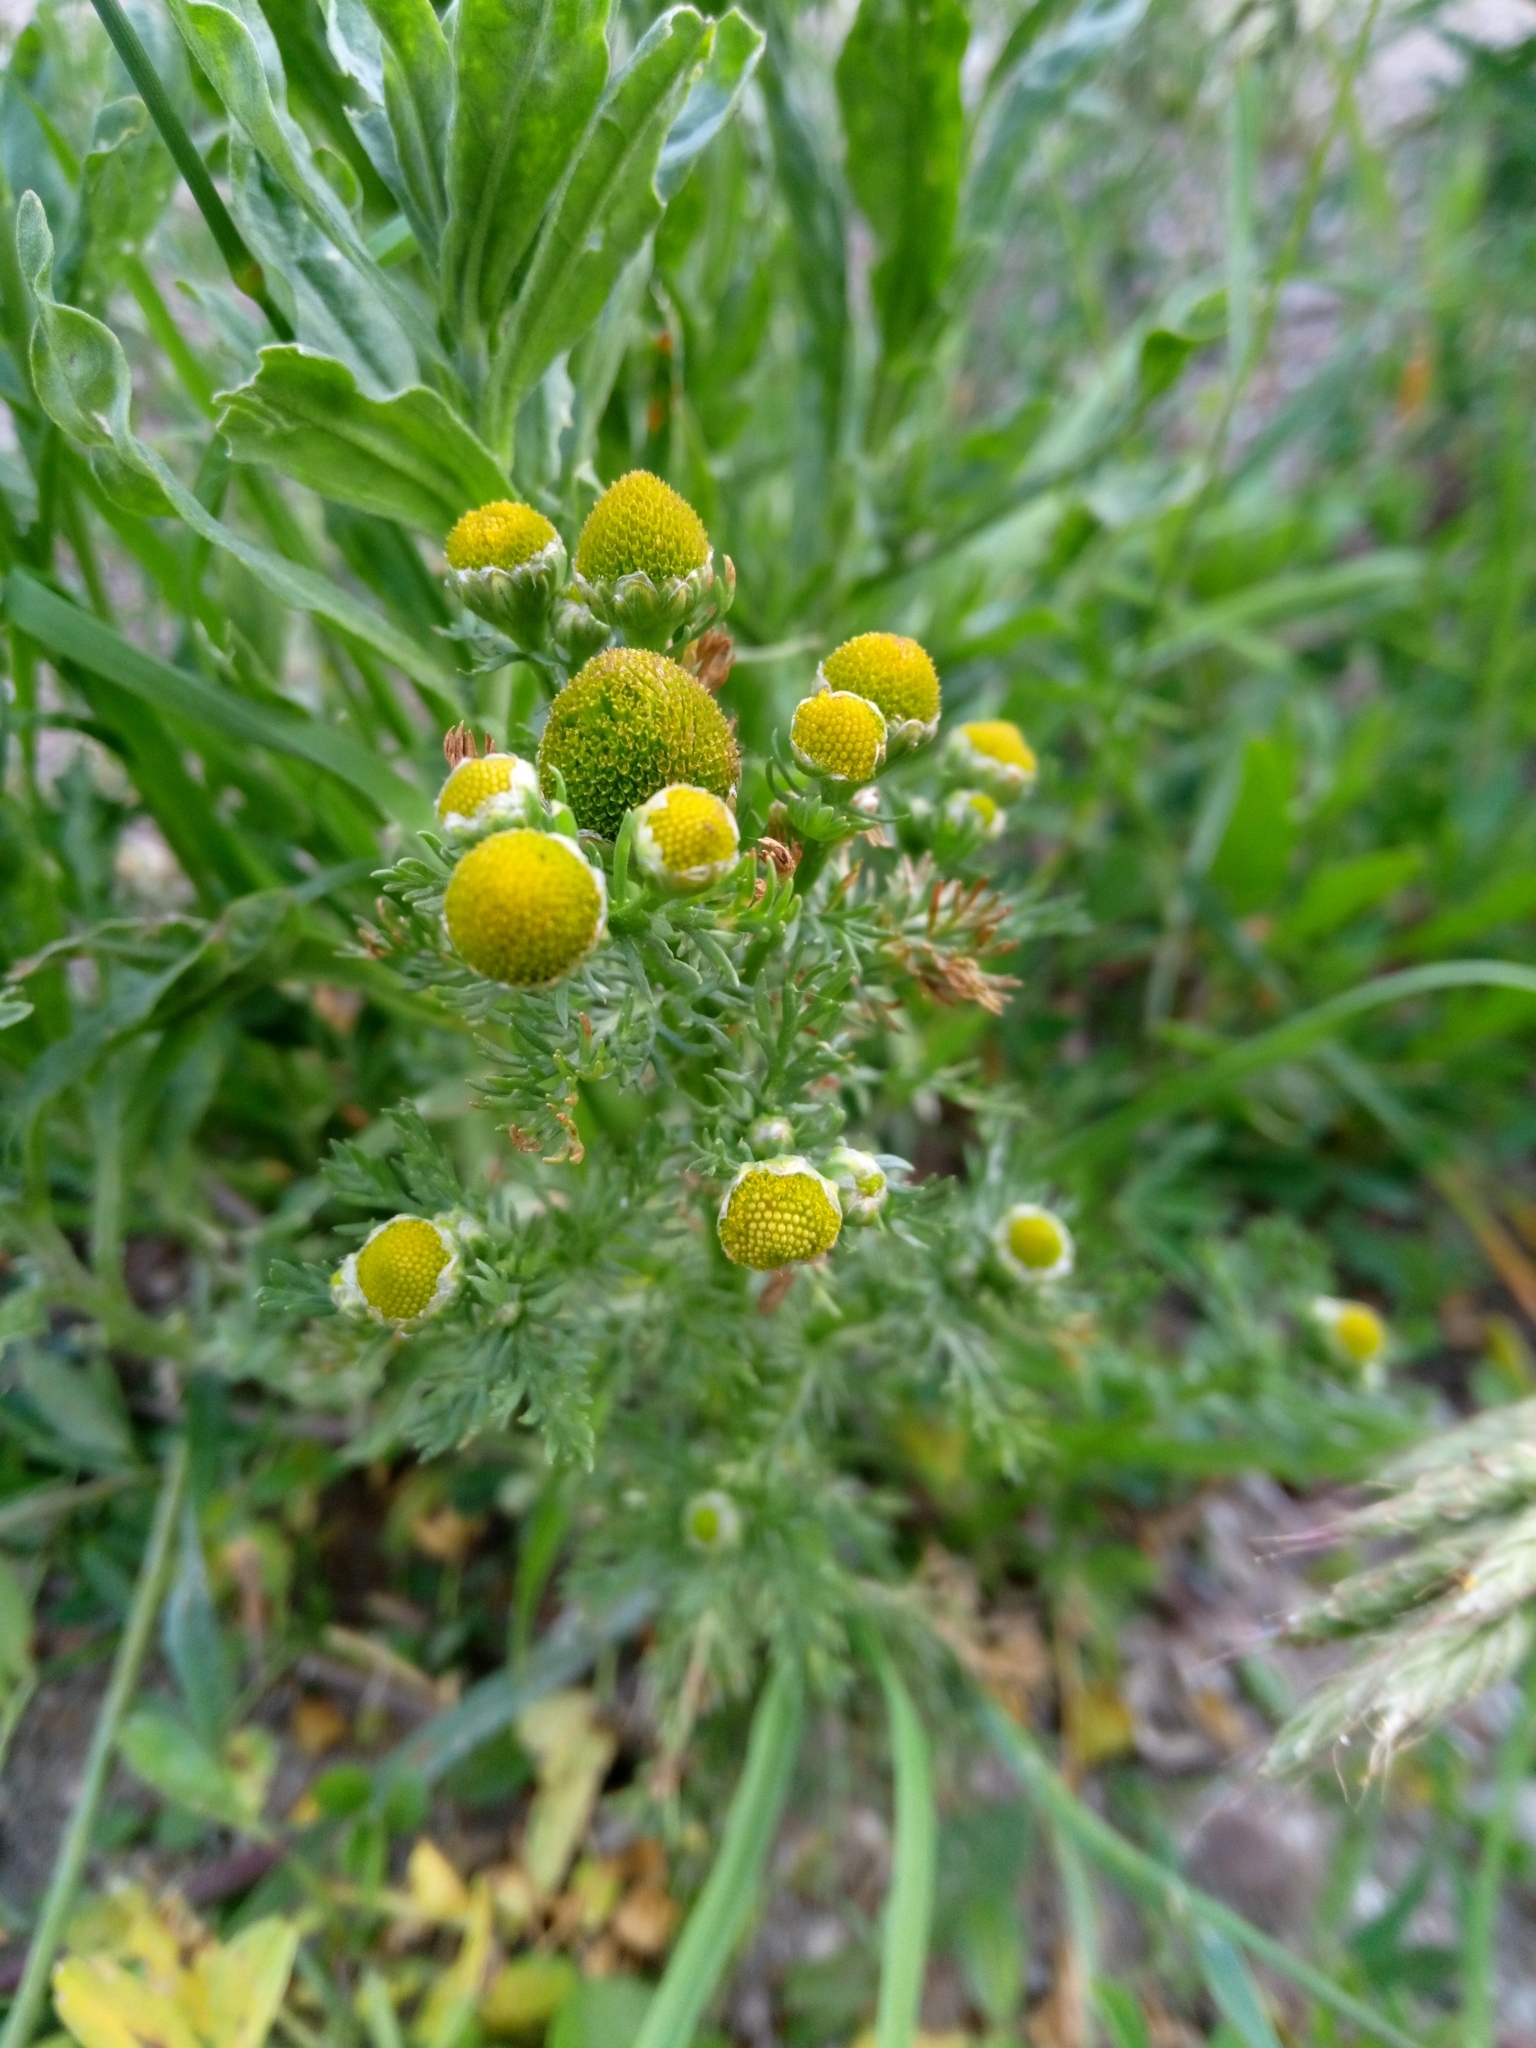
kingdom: Plantae
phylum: Tracheophyta
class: Magnoliopsida
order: Asterales
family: Asteraceae
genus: Matricaria
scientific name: Matricaria discoidea
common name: Disc mayweed
